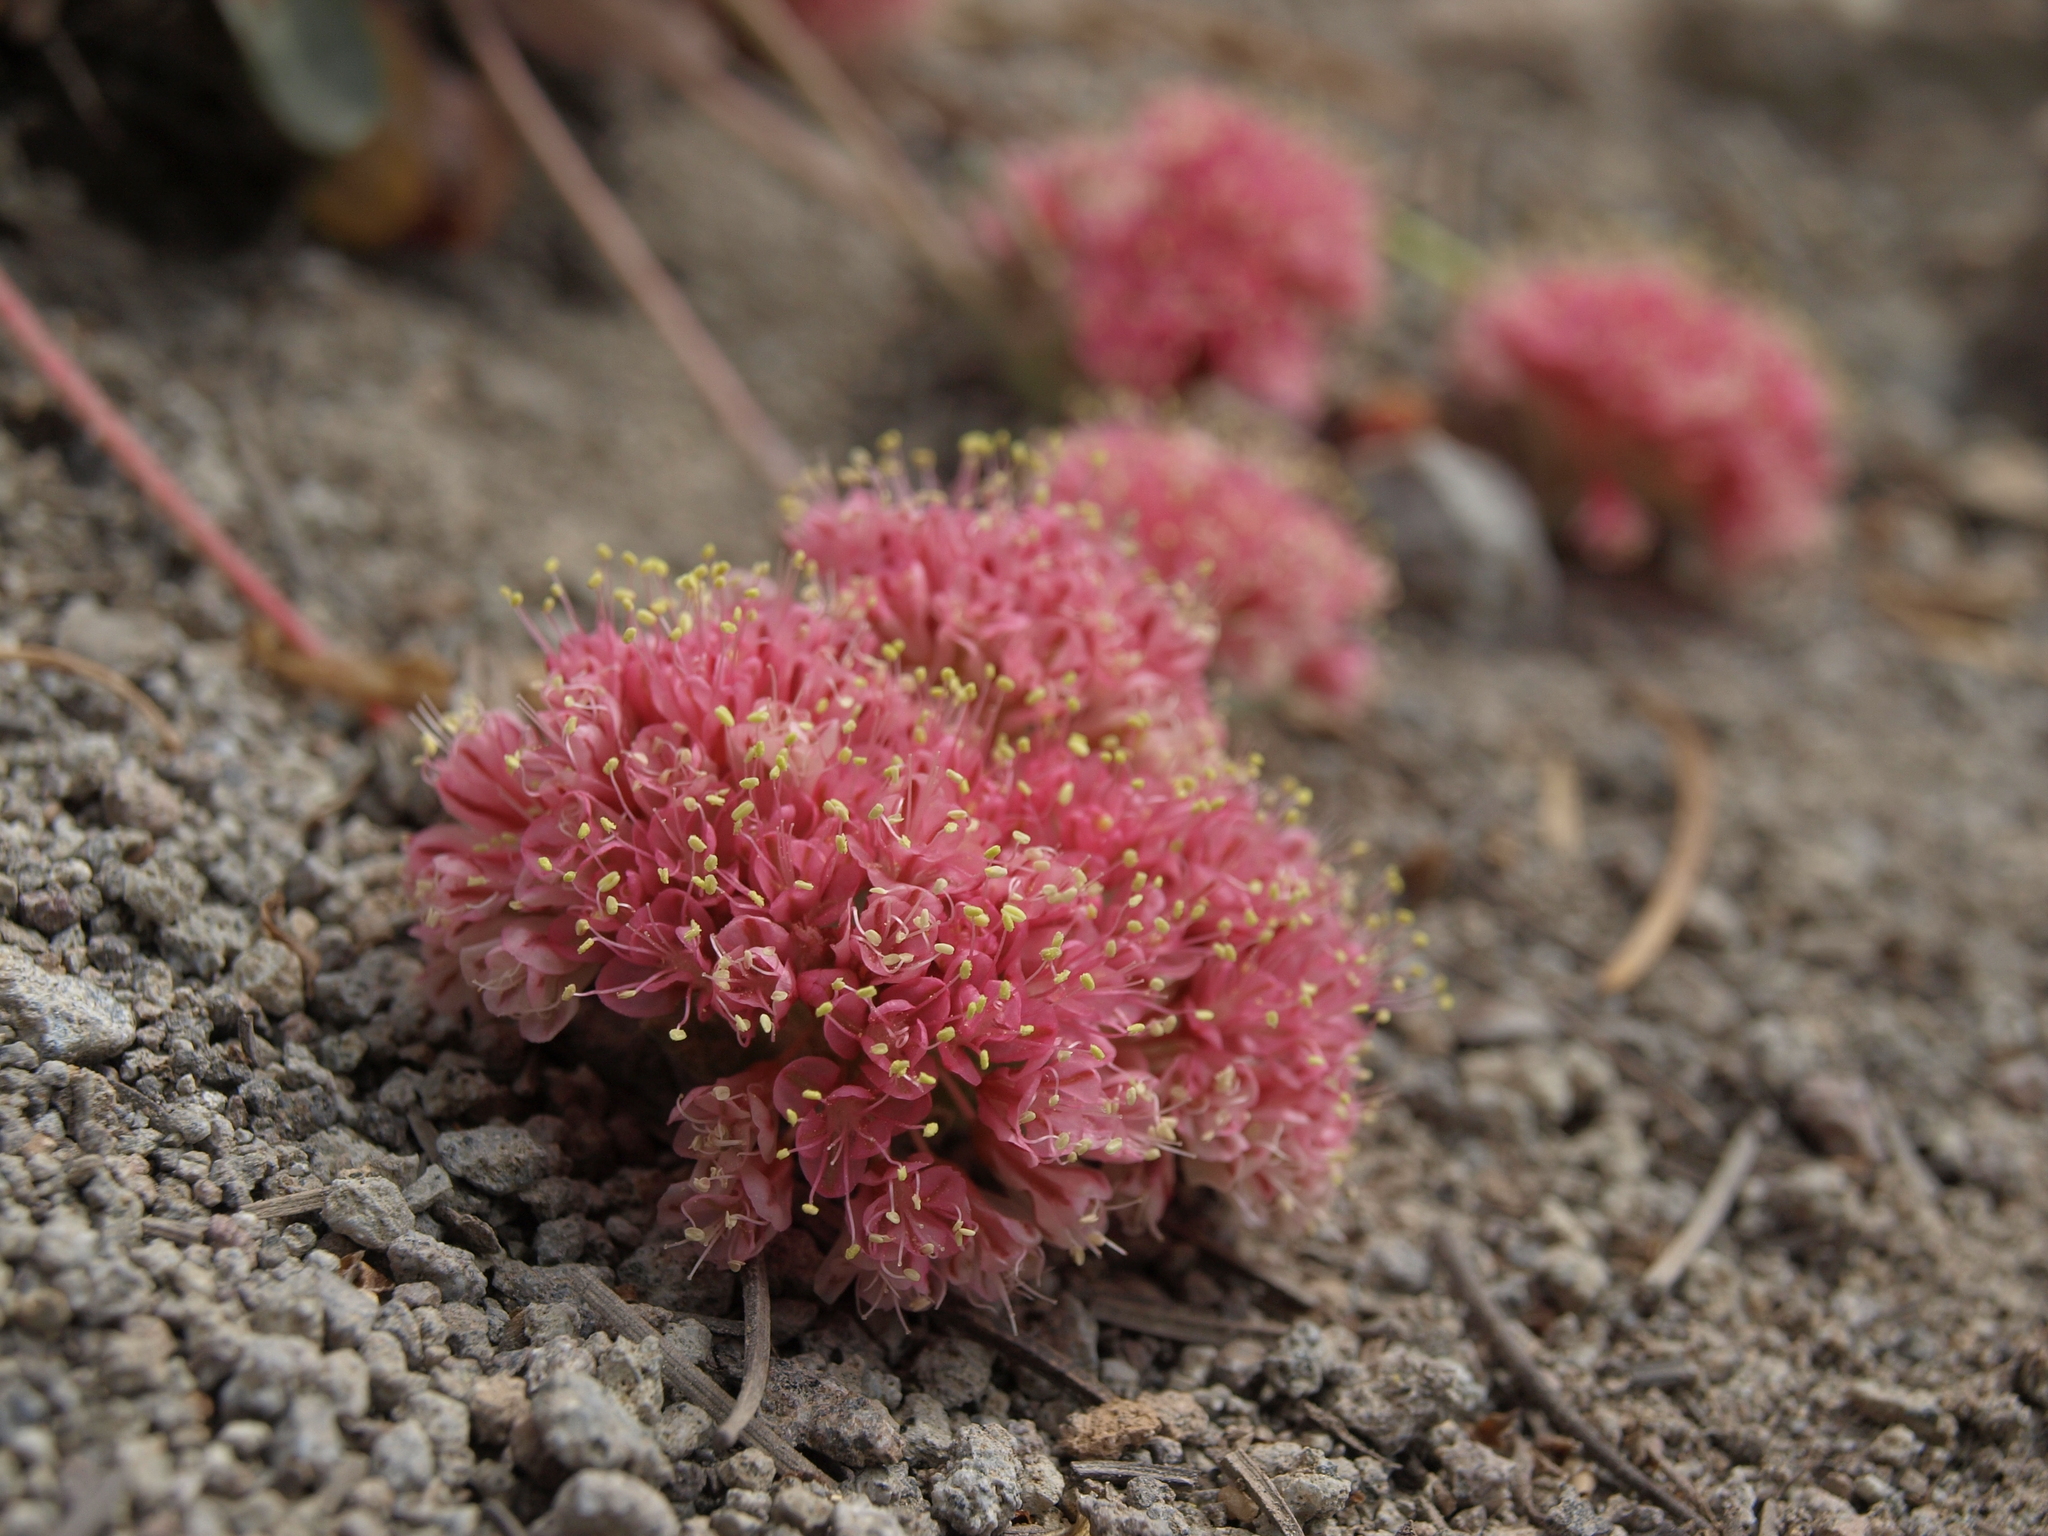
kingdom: Plantae
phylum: Tracheophyta
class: Magnoliopsida
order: Caryophyllales
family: Polygonaceae
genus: Eriogonum
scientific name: Eriogonum lobbii
